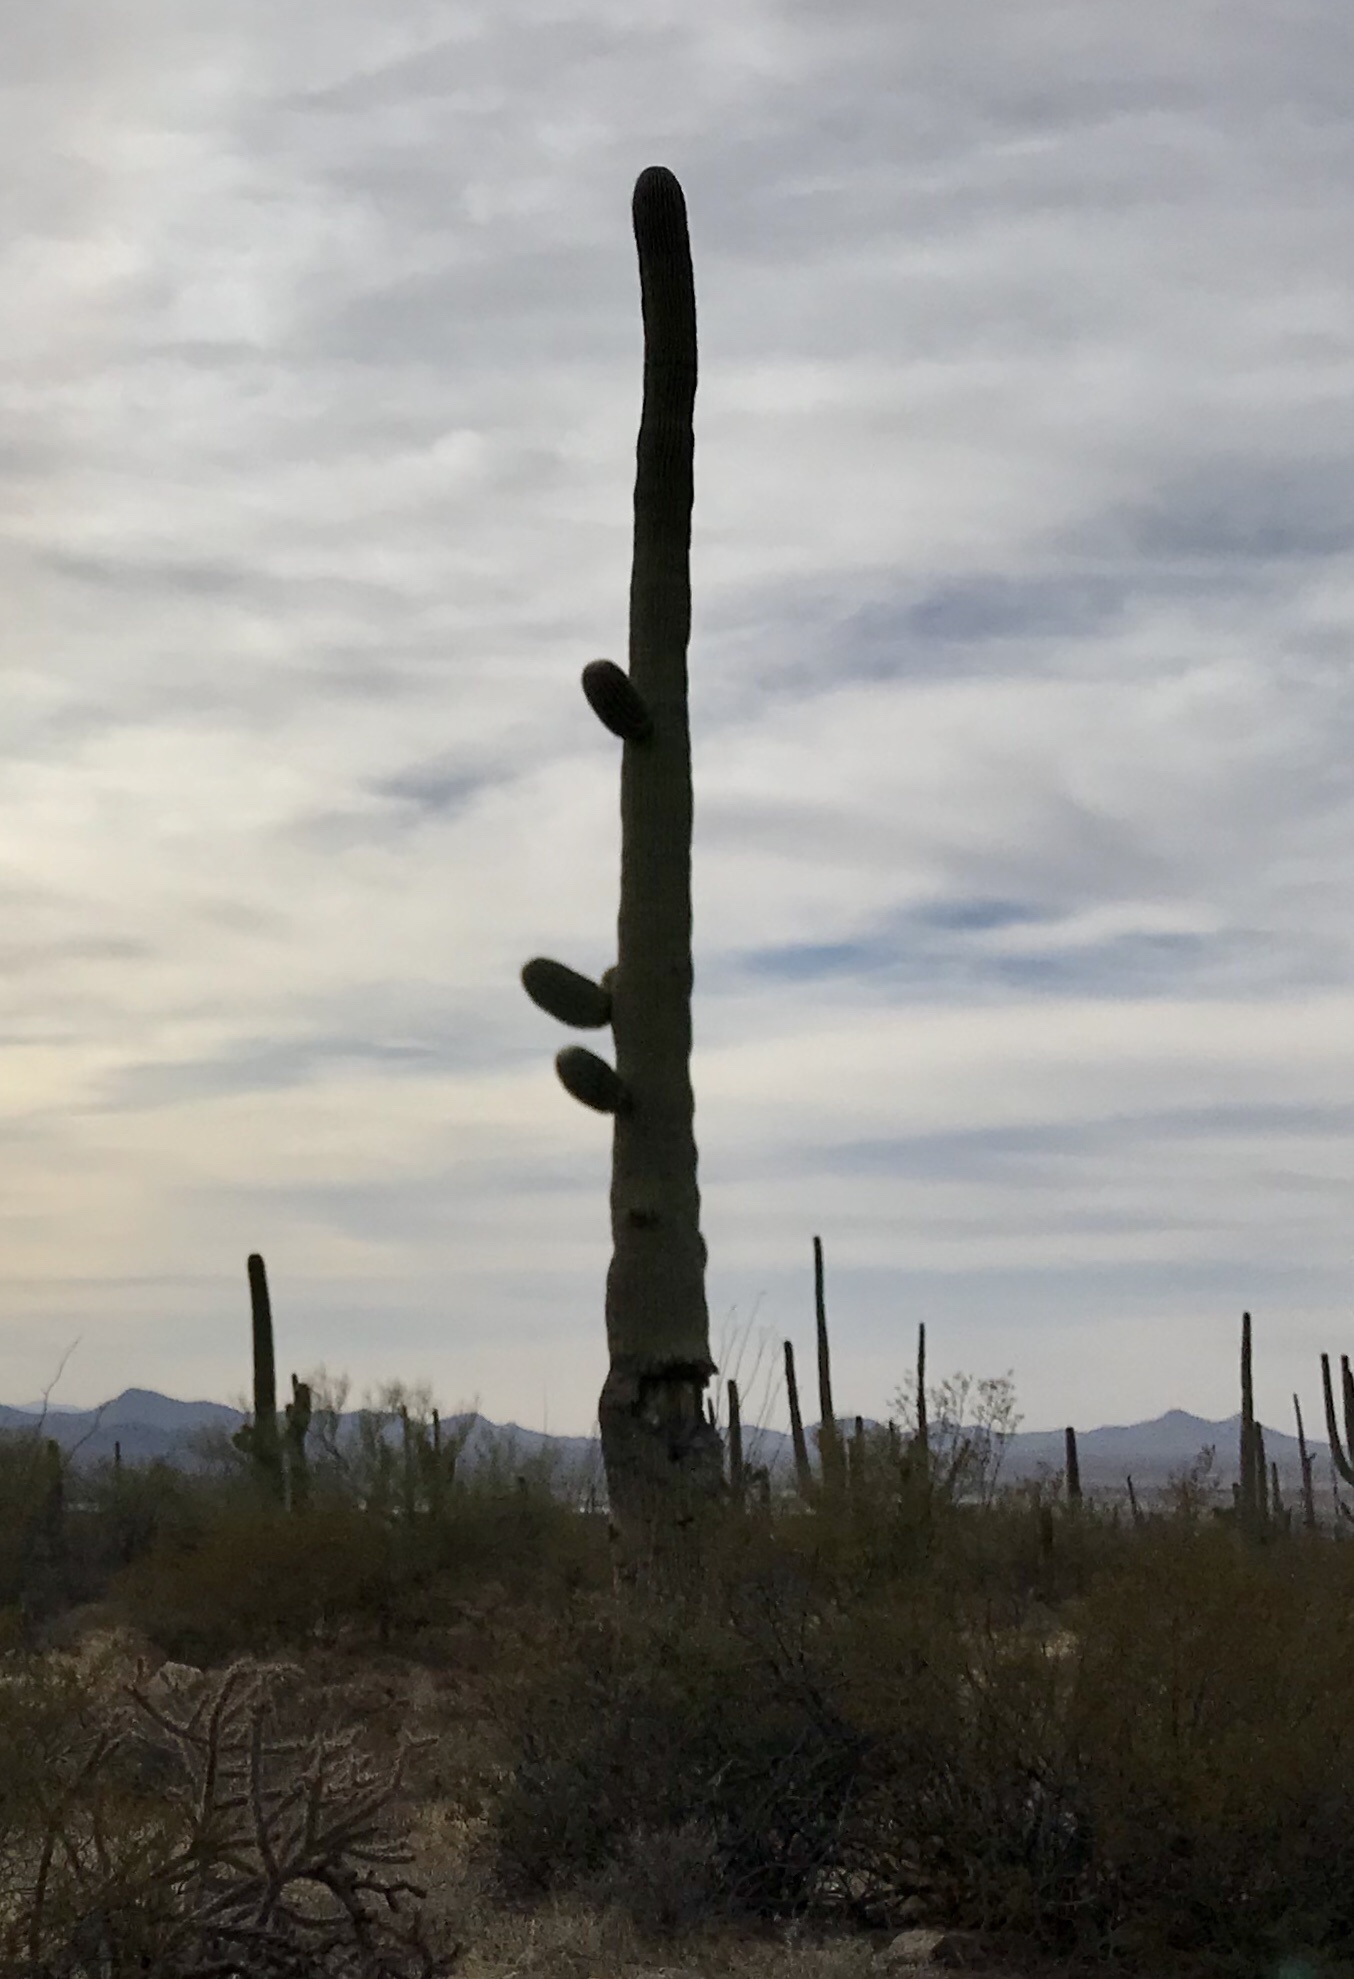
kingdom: Plantae
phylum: Tracheophyta
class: Magnoliopsida
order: Caryophyllales
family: Cactaceae
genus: Carnegiea
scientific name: Carnegiea gigantea
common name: Saguaro
